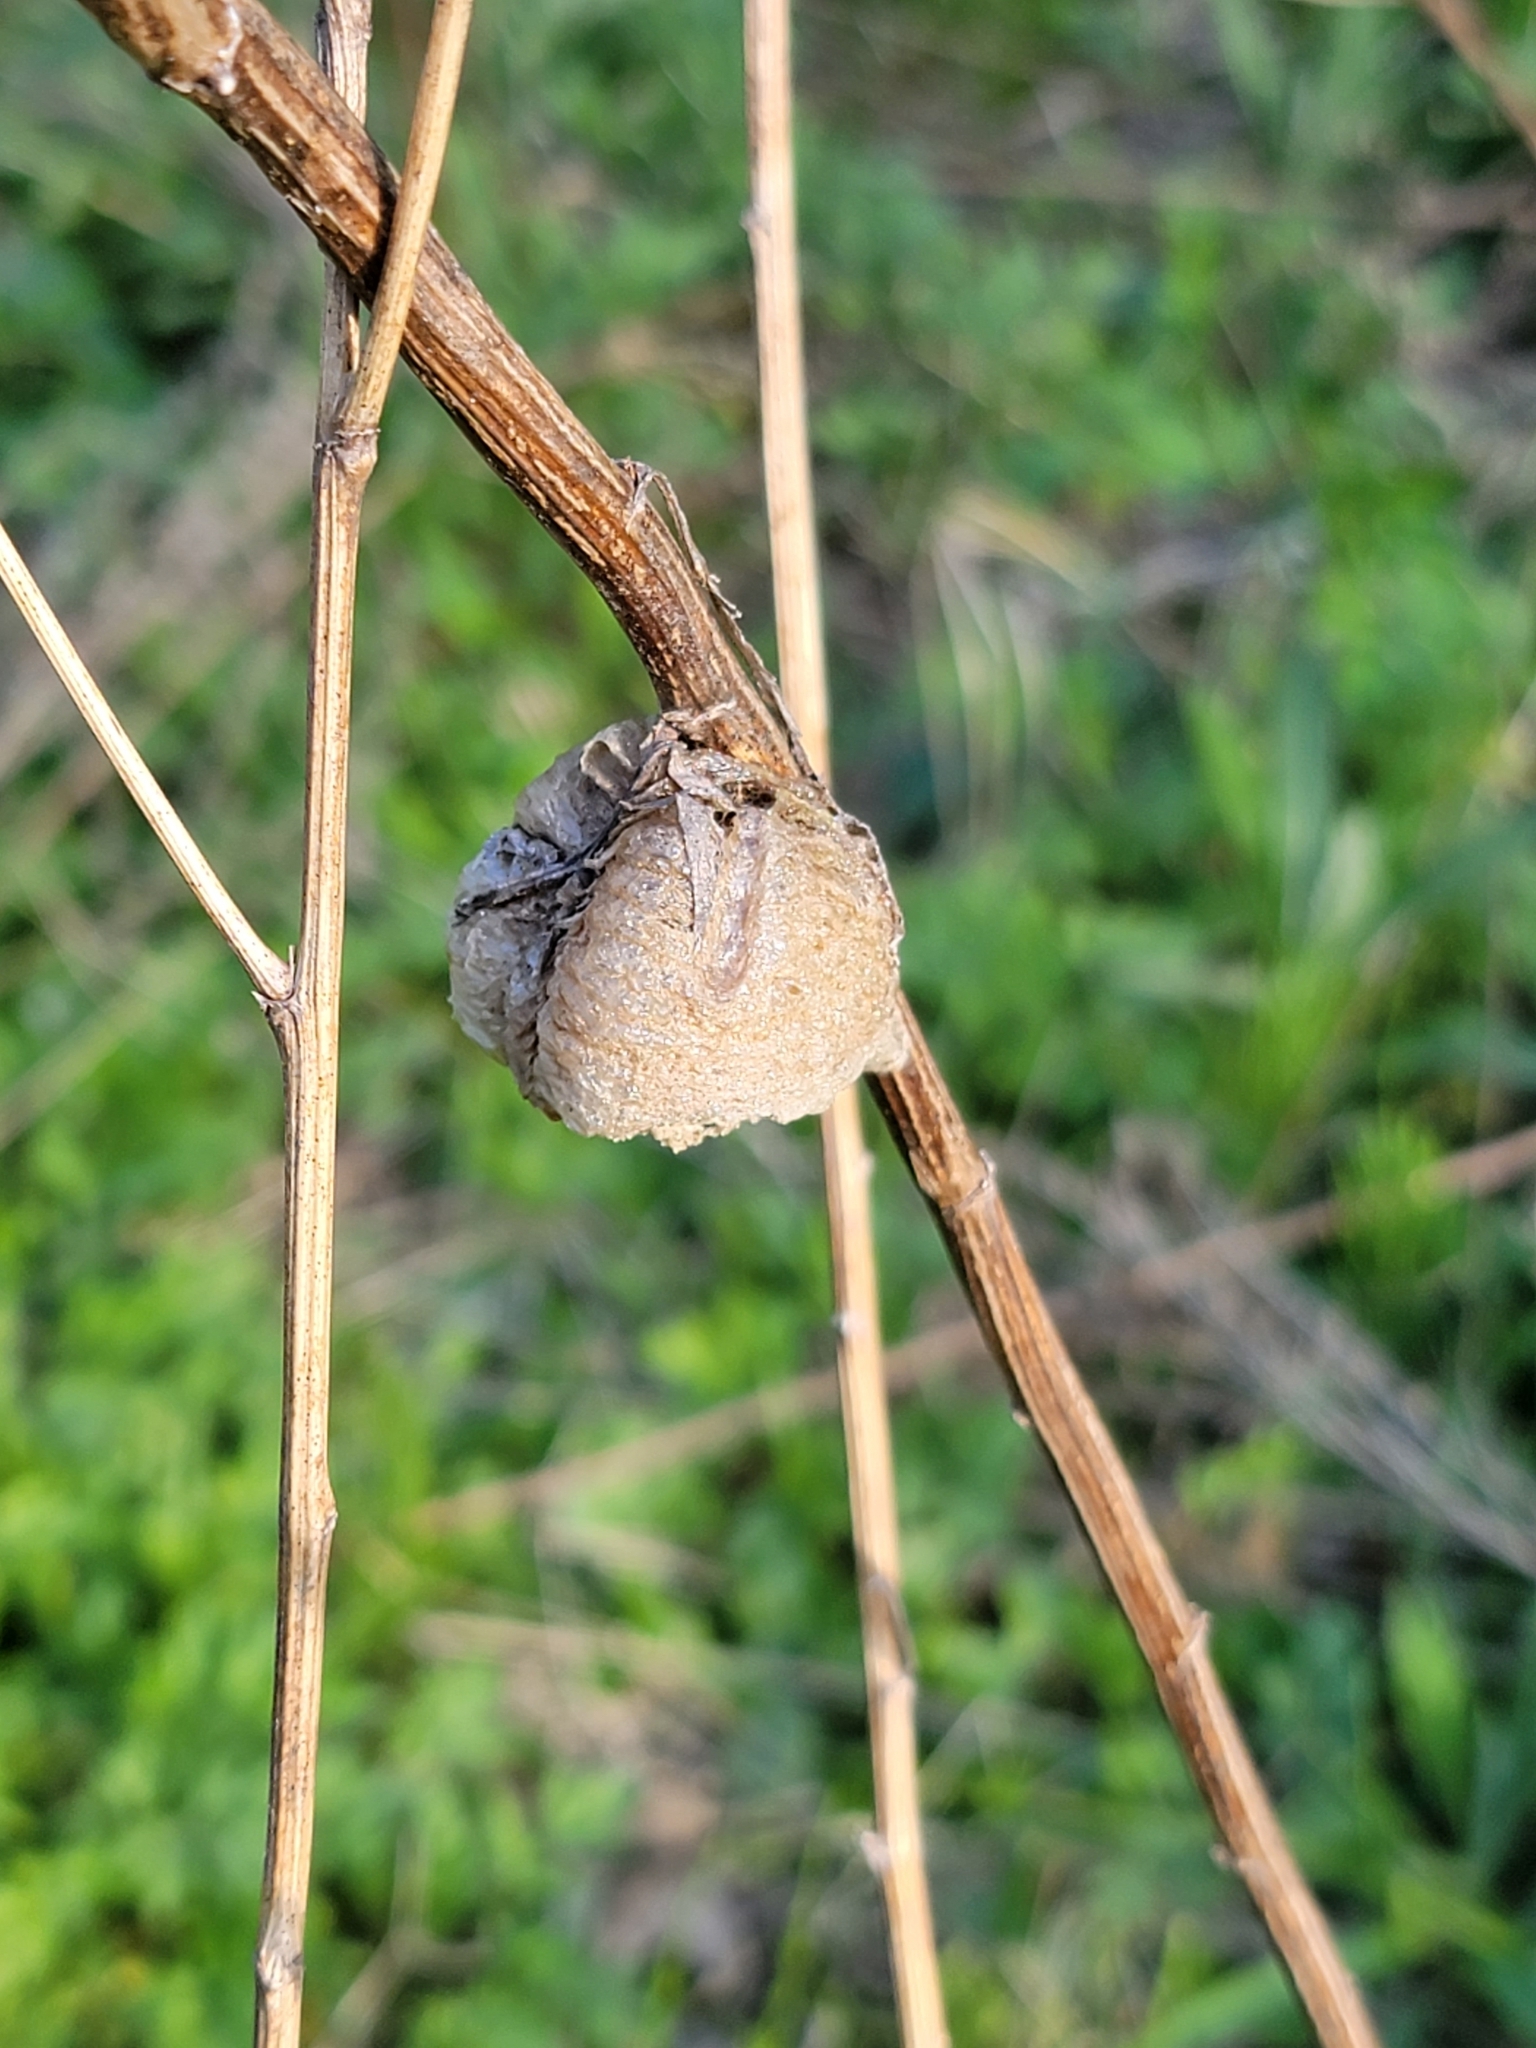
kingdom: Animalia
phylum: Arthropoda
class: Insecta
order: Mantodea
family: Mantidae
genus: Tenodera
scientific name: Tenodera sinensis
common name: Chinese mantis
